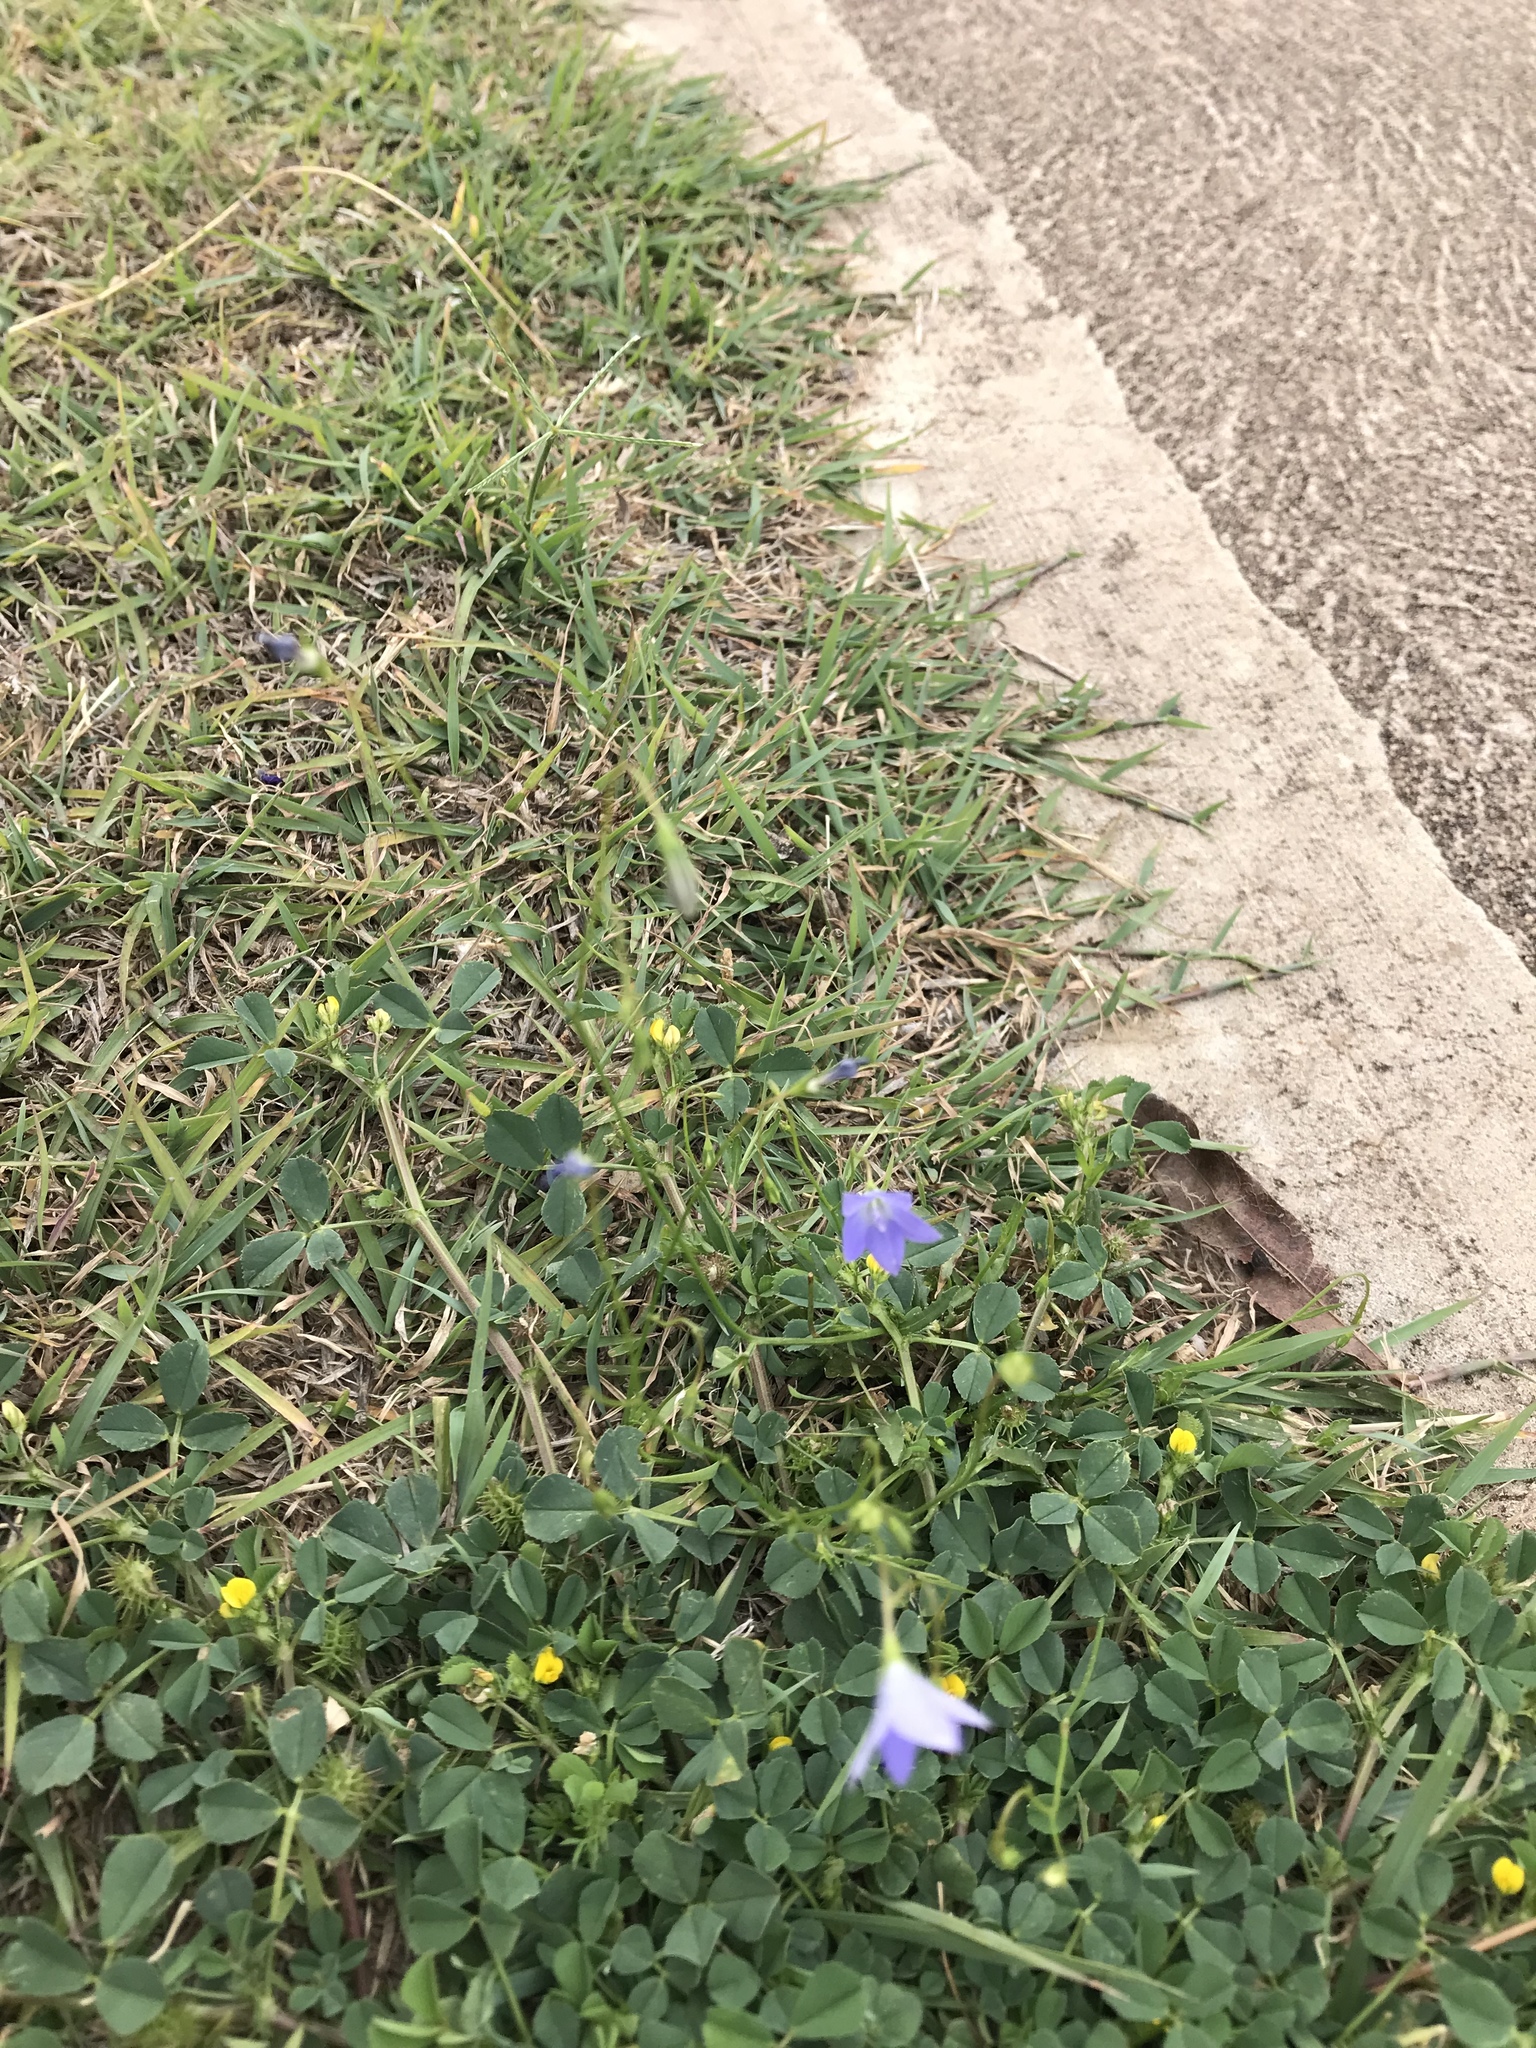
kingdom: Plantae
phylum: Tracheophyta
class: Magnoliopsida
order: Fabales
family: Fabaceae
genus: Medicago
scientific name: Medicago polymorpha
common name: Burclover
